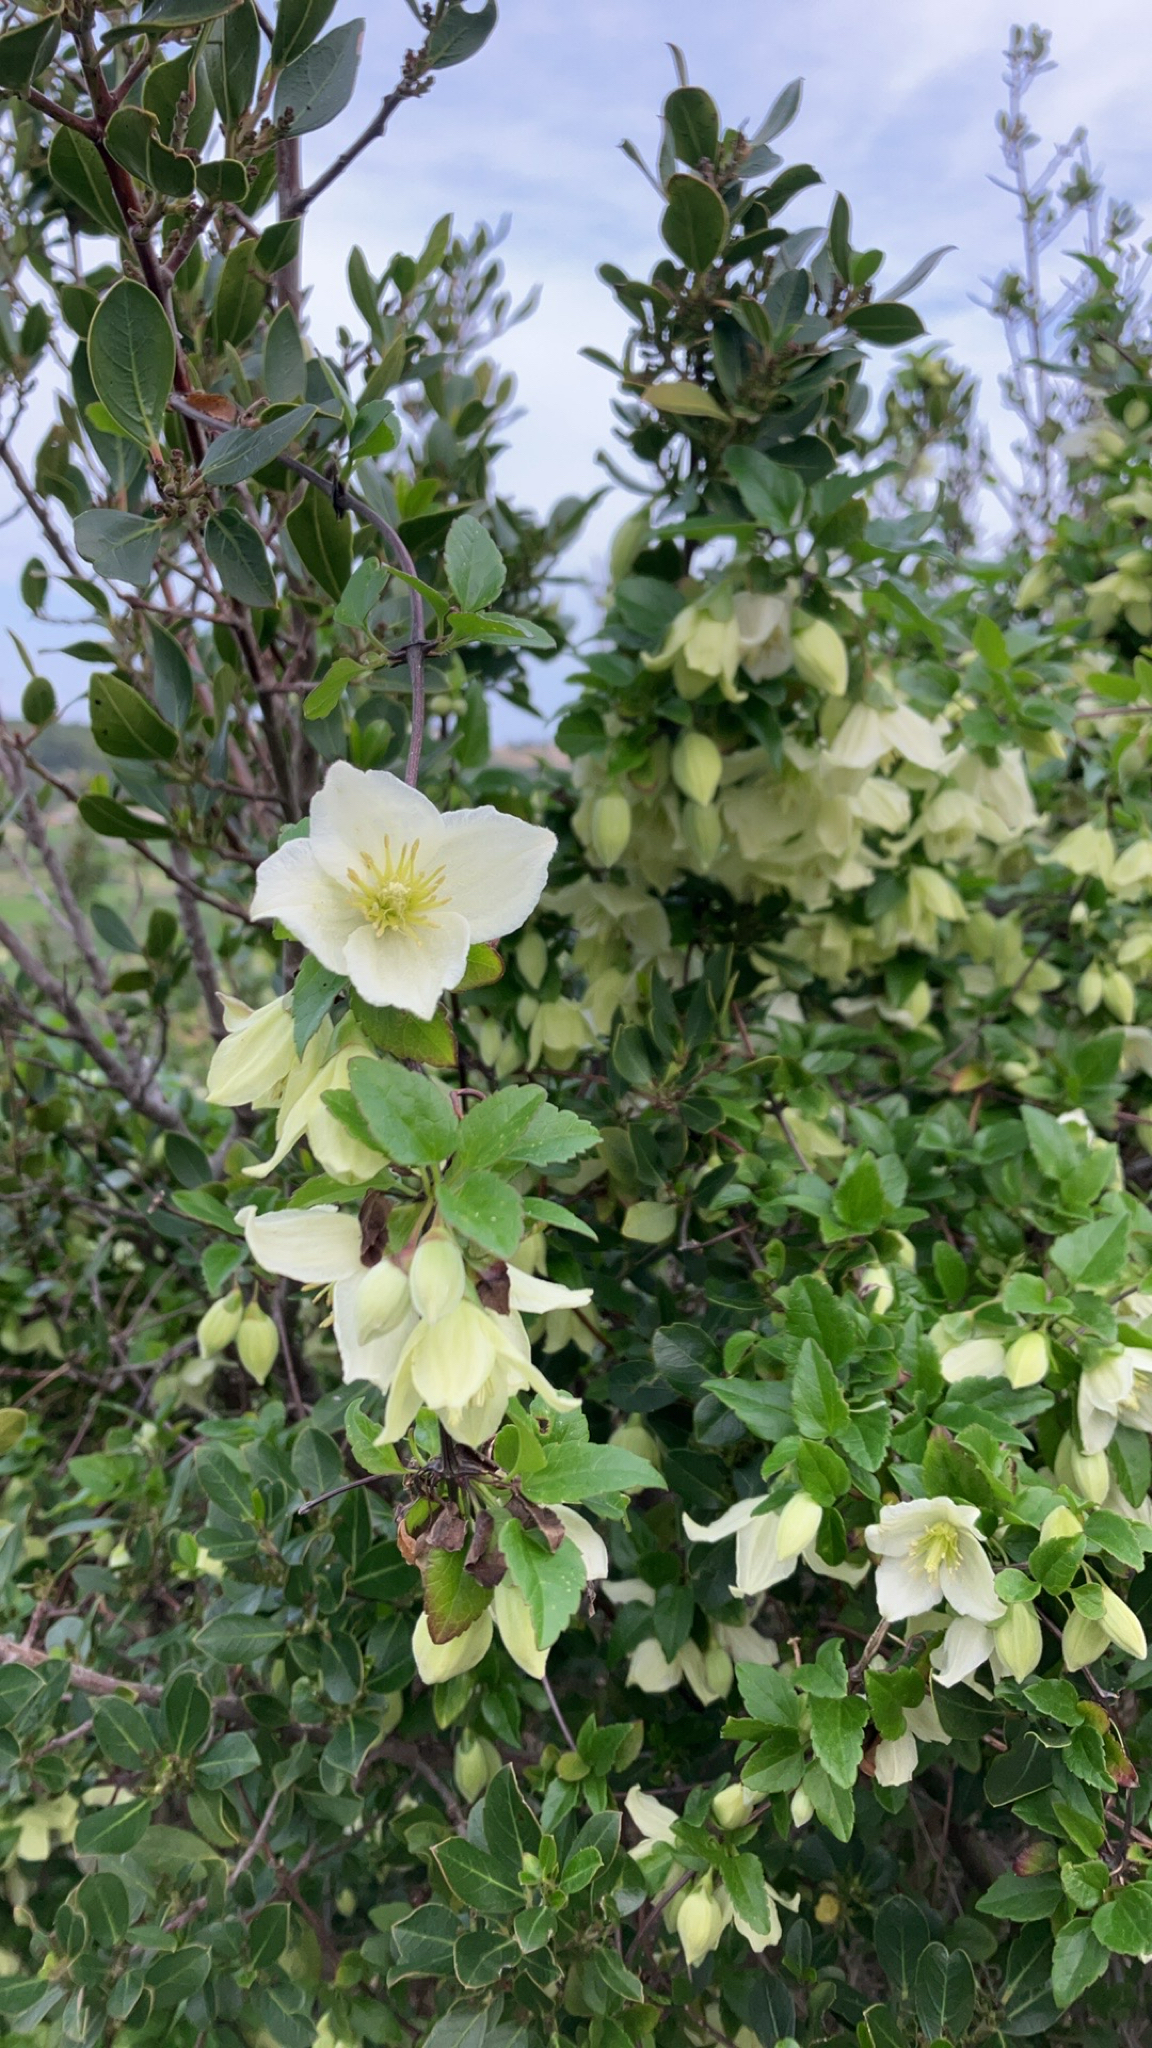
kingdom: Plantae
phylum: Tracheophyta
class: Magnoliopsida
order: Ranunculales
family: Ranunculaceae
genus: Clematis
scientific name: Clematis cirrhosa
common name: Early virgin's-bower
